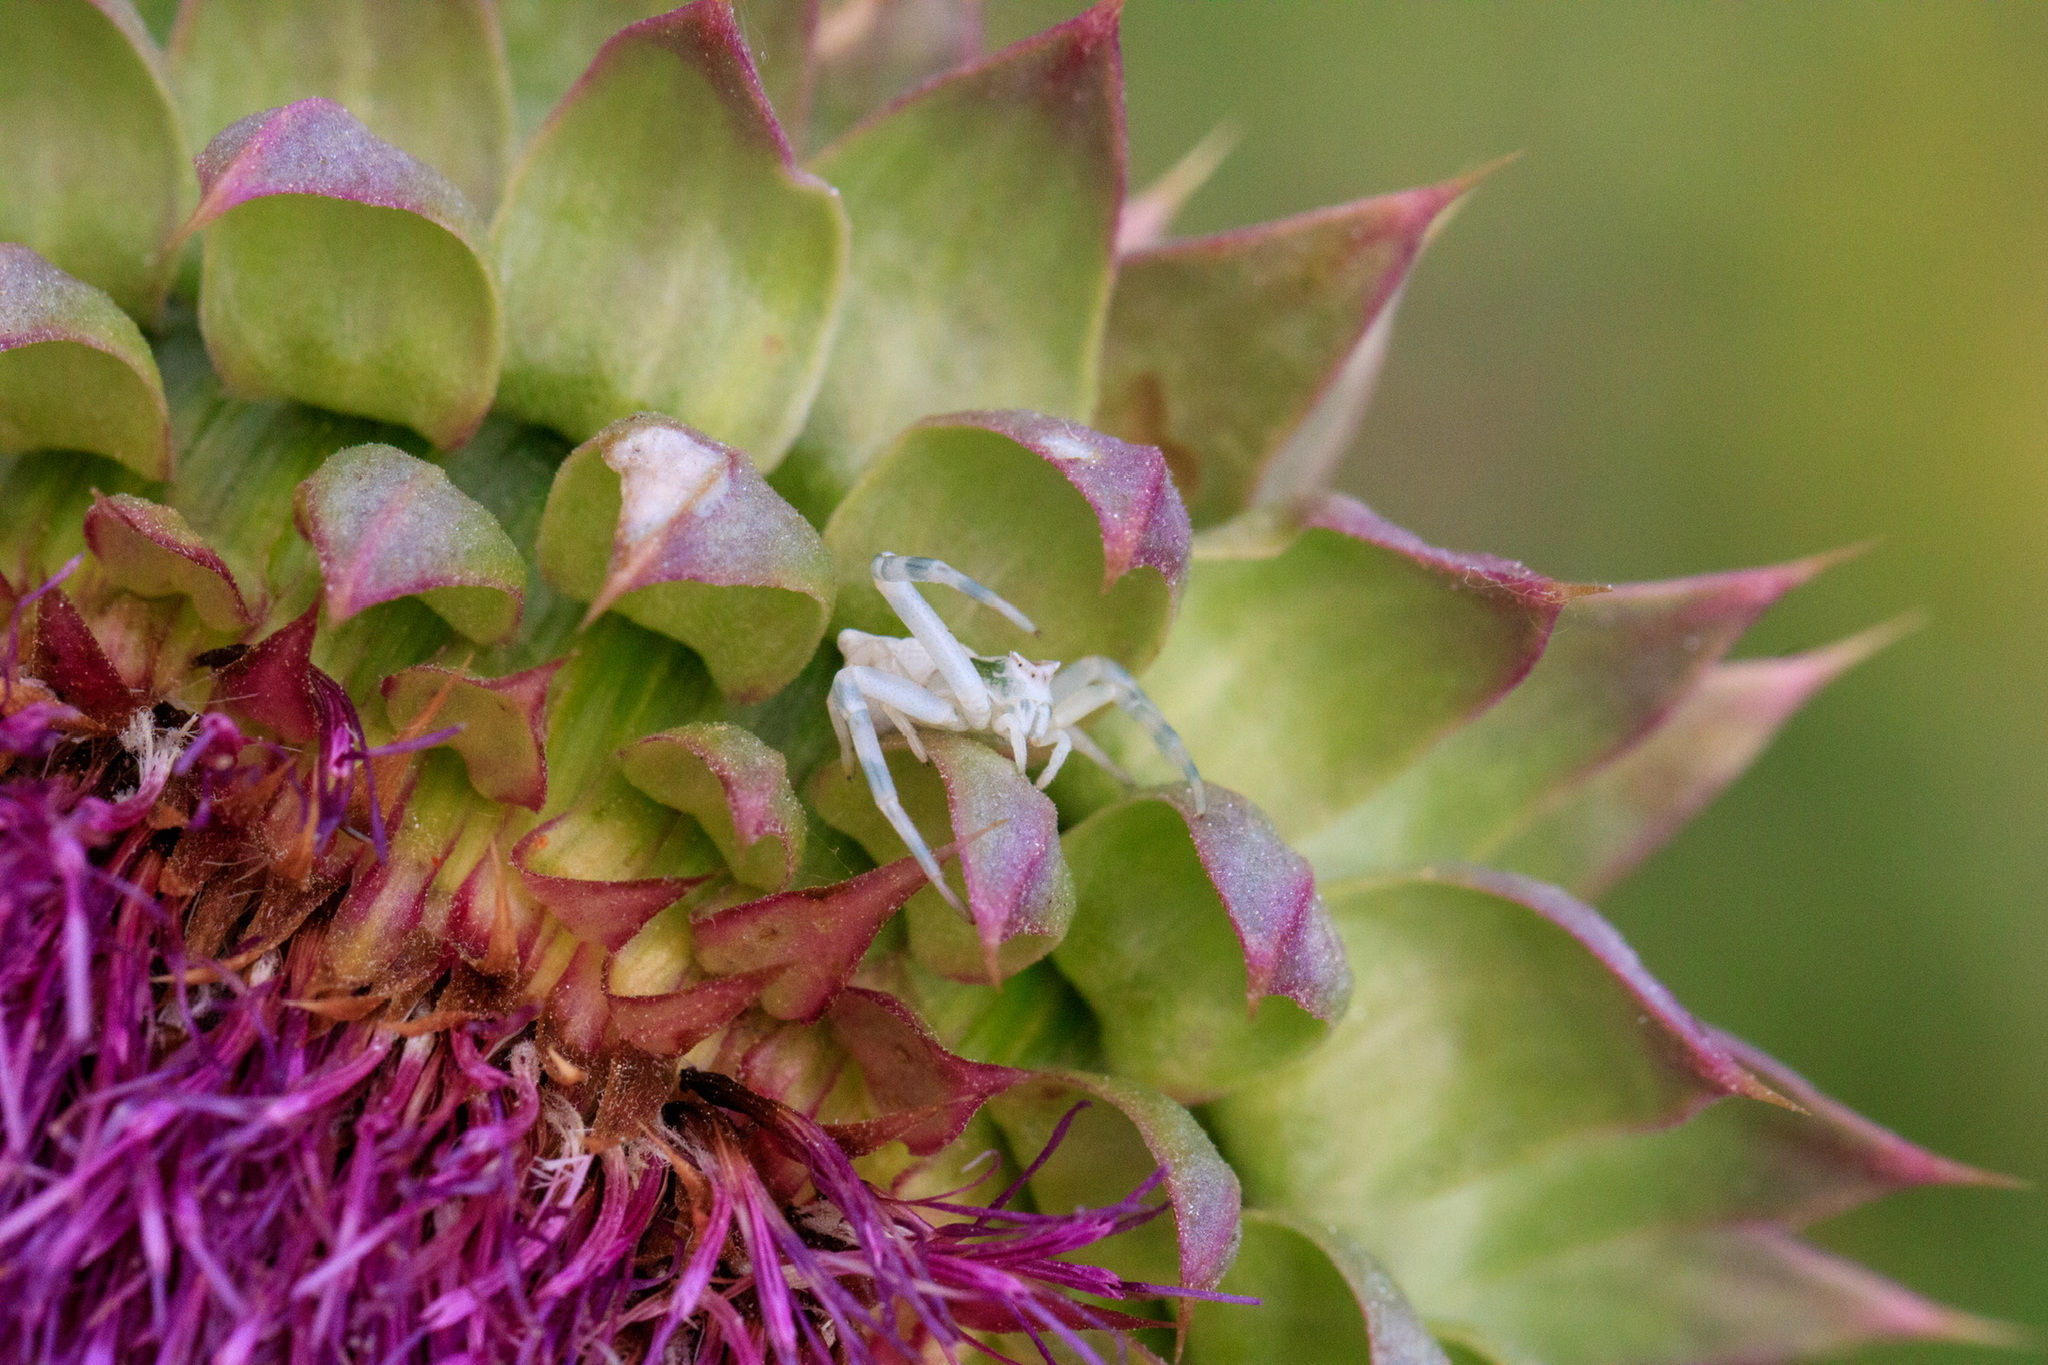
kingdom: Animalia
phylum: Arthropoda
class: Arachnida
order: Araneae
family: Thomisidae
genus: Thomisus
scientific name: Thomisus onustus
